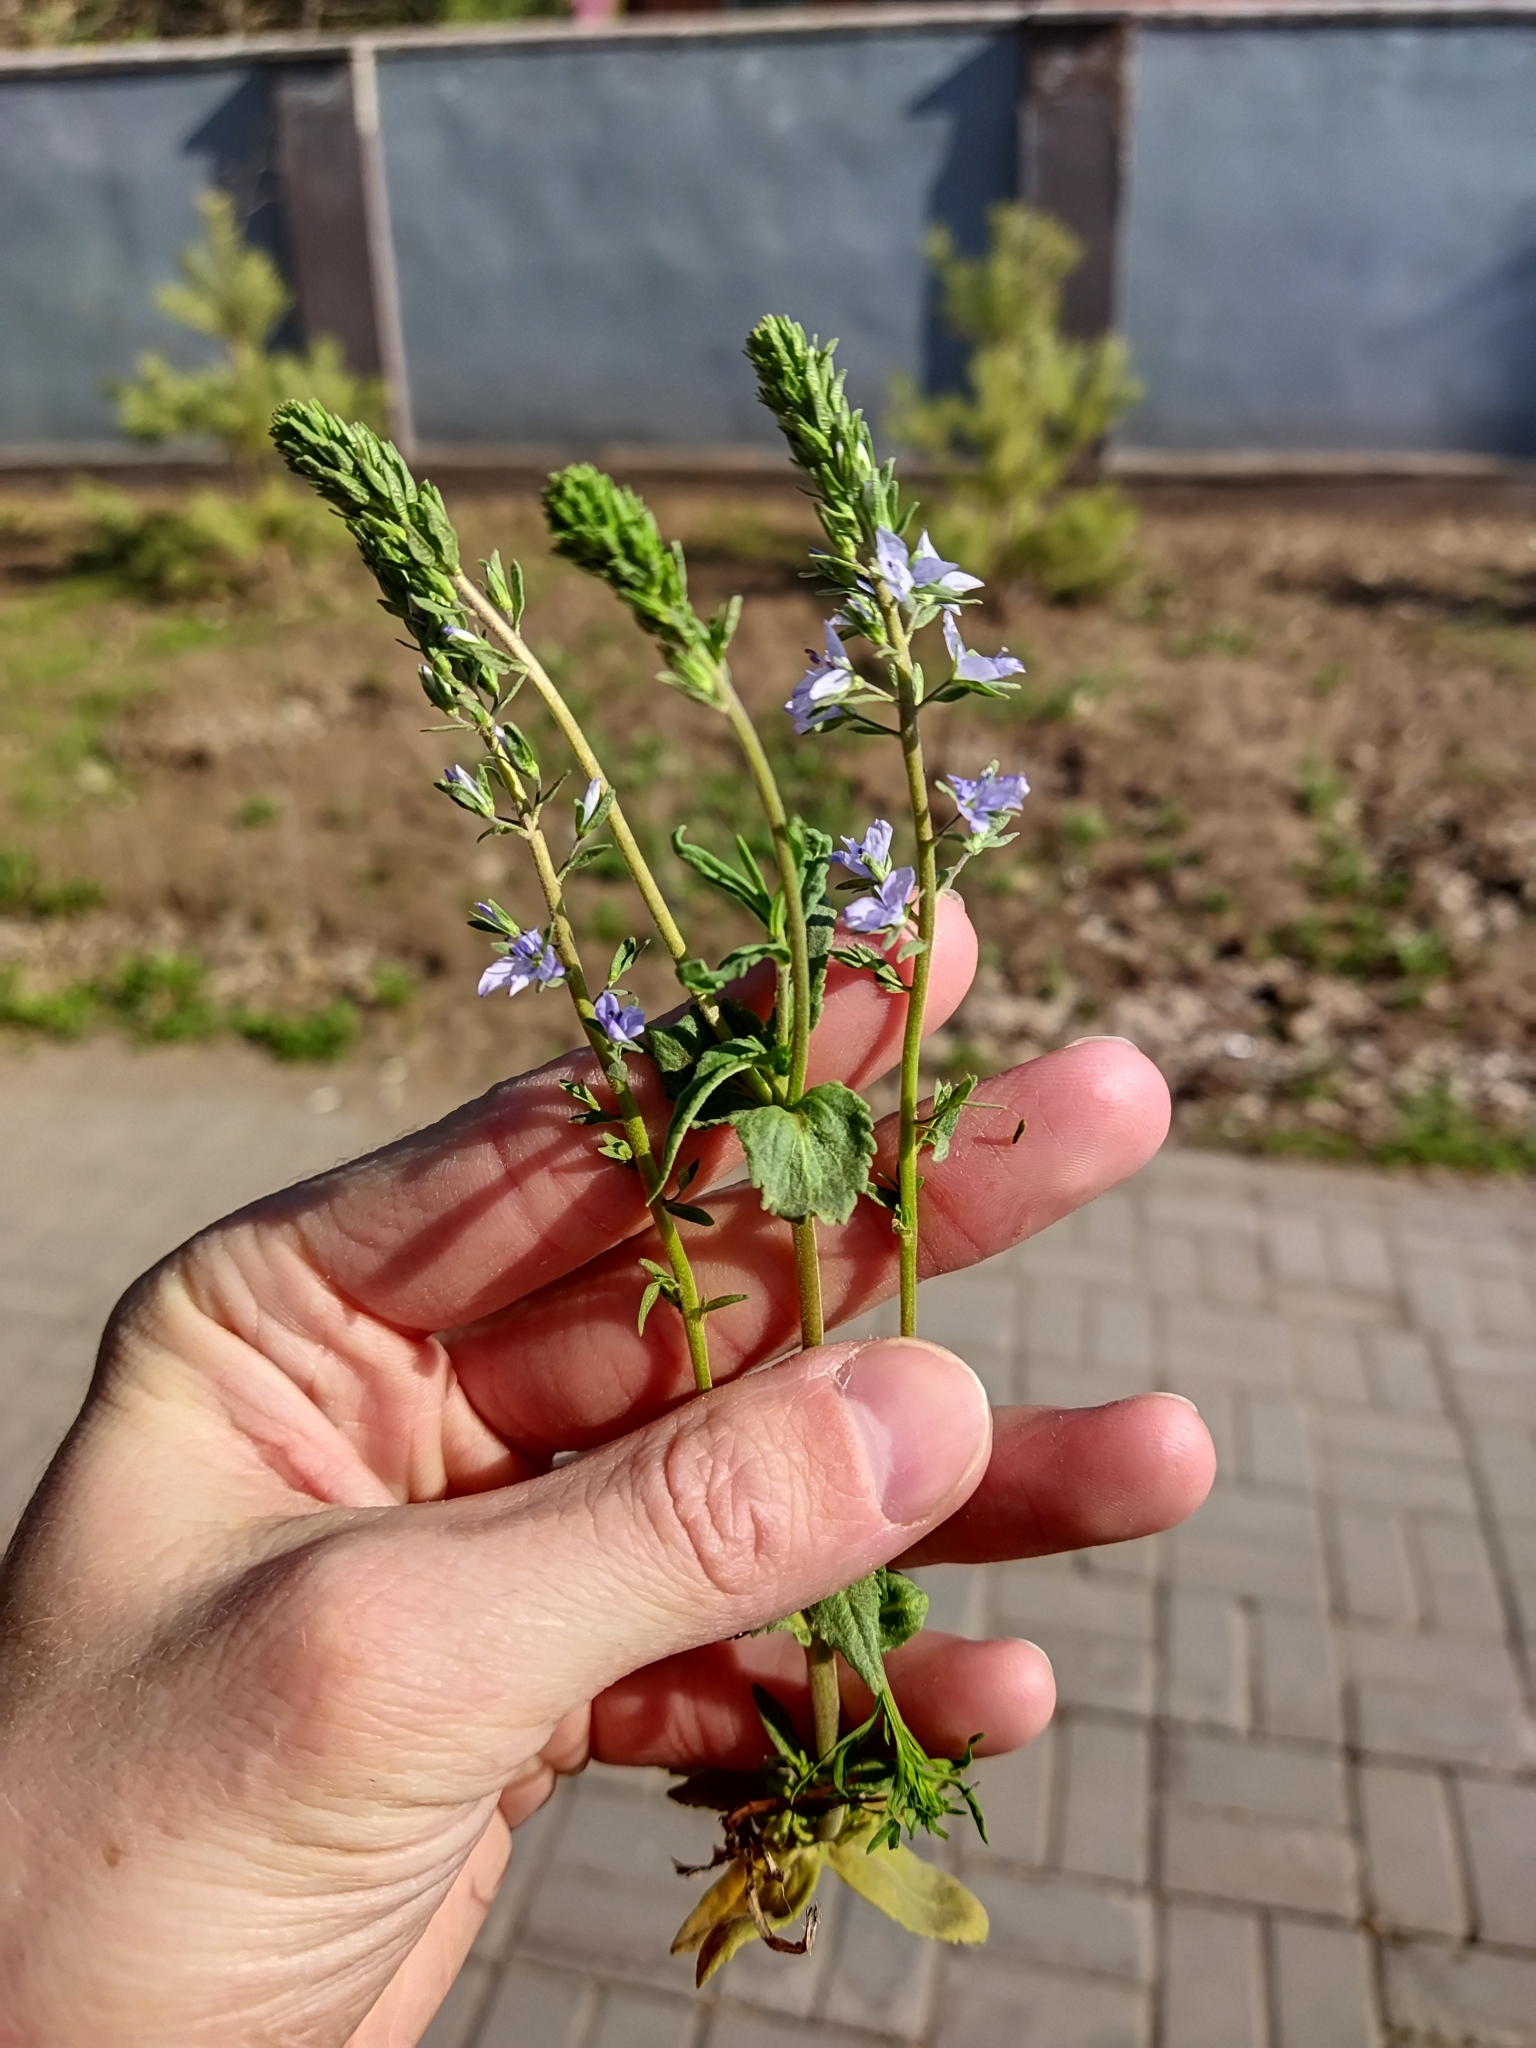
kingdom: Plantae
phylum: Tracheophyta
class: Magnoliopsida
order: Lamiales
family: Plantaginaceae
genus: Veronica
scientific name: Veronica prostrata
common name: Prostrate speedwell
